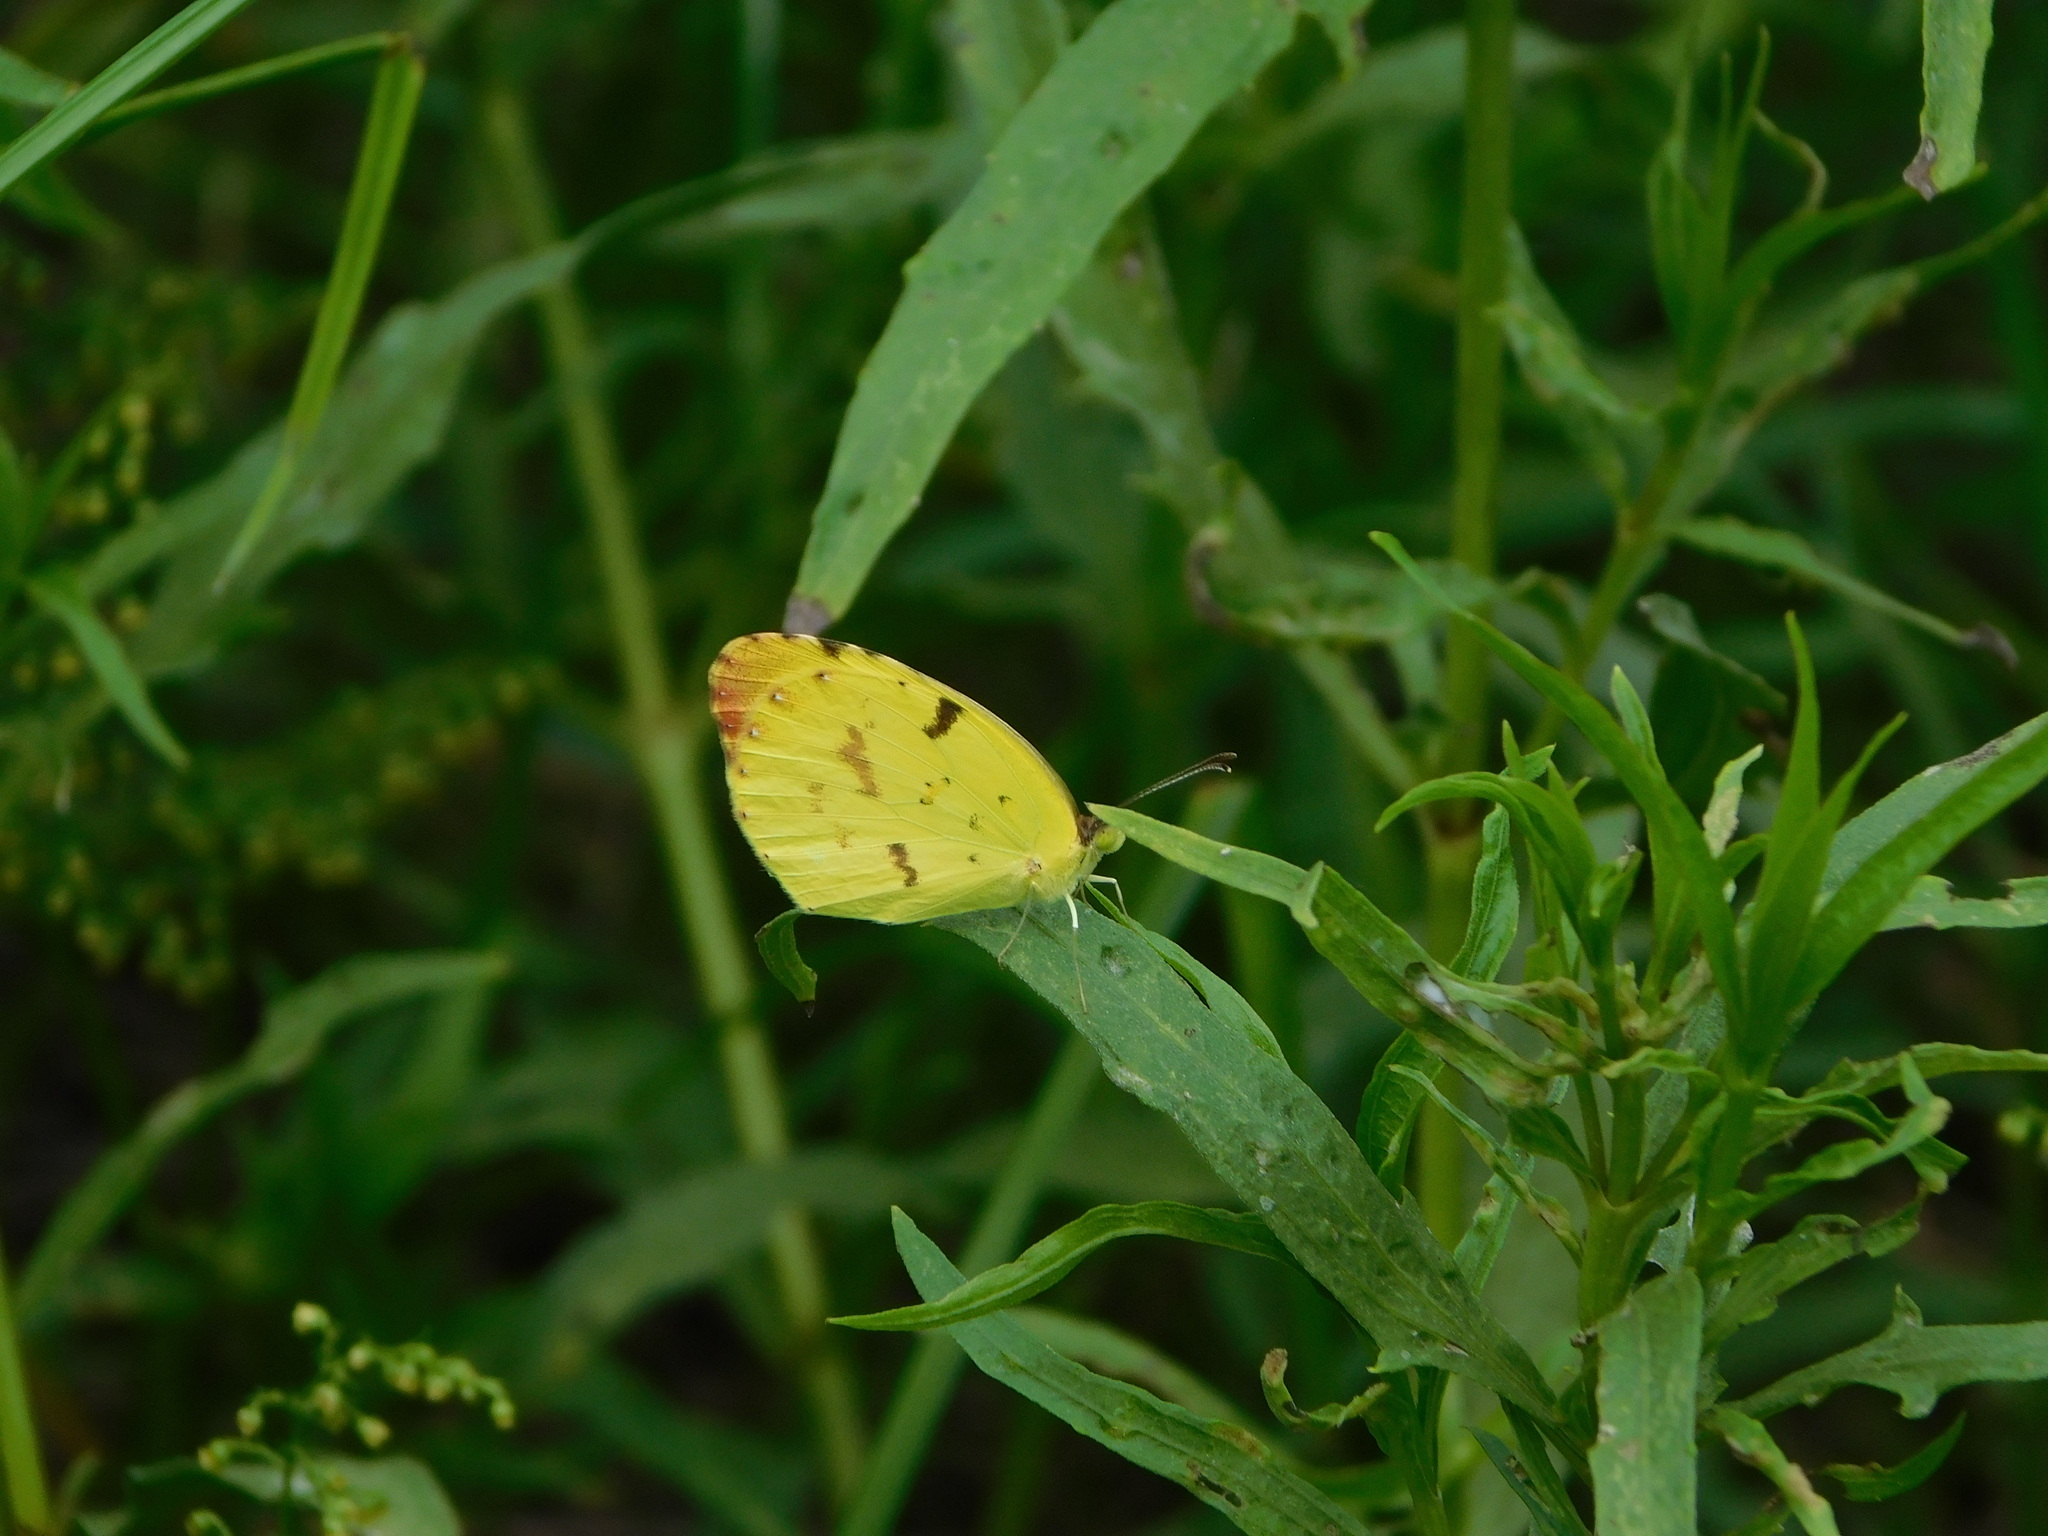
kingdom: Animalia
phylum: Arthropoda
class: Insecta
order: Lepidoptera
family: Pieridae
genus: Teriocolias
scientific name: Teriocolias
